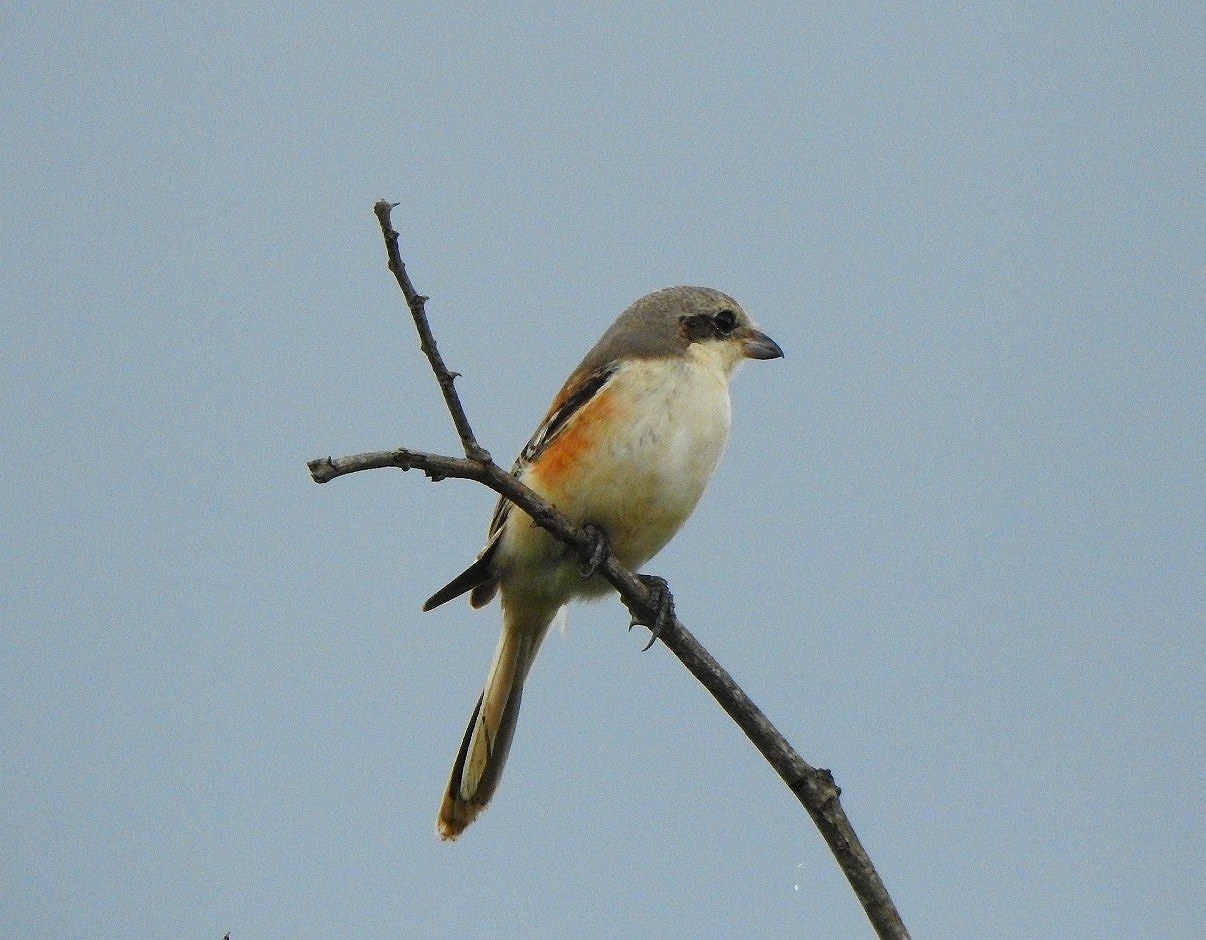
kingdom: Animalia
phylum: Chordata
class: Aves
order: Passeriformes
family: Laniidae
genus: Lanius
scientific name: Lanius schach
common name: Long-tailed shrike
